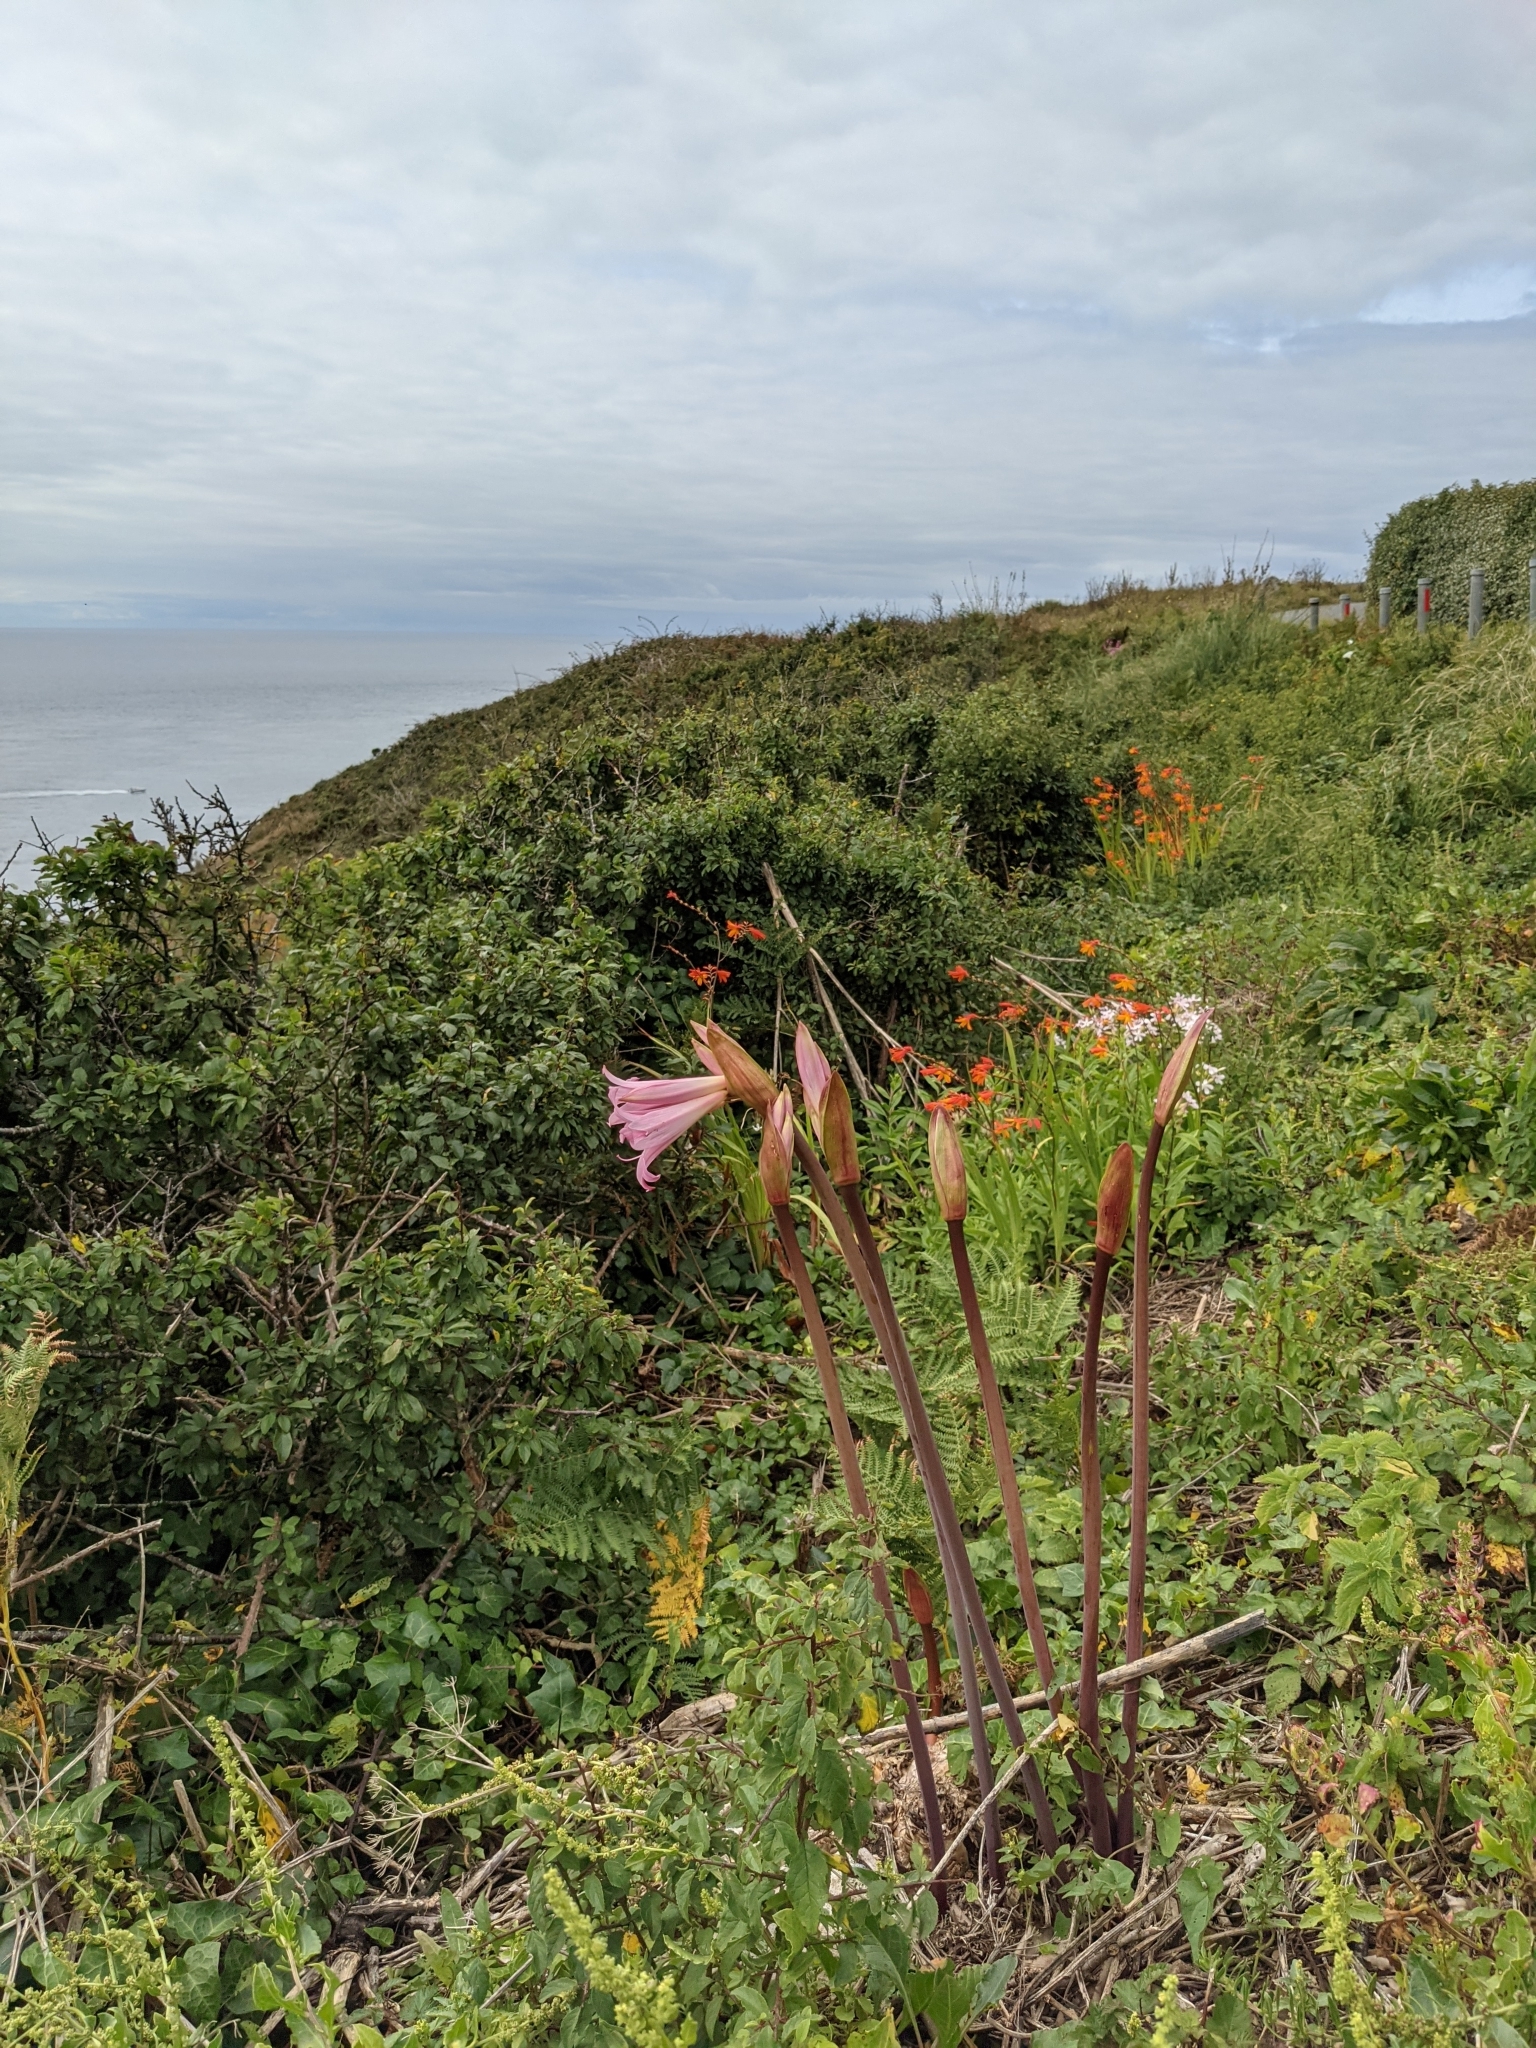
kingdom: Plantae
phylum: Tracheophyta
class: Liliopsida
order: Asparagales
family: Amaryllidaceae
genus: Amaryllis
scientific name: Amaryllis belladonna
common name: Jersey lily
